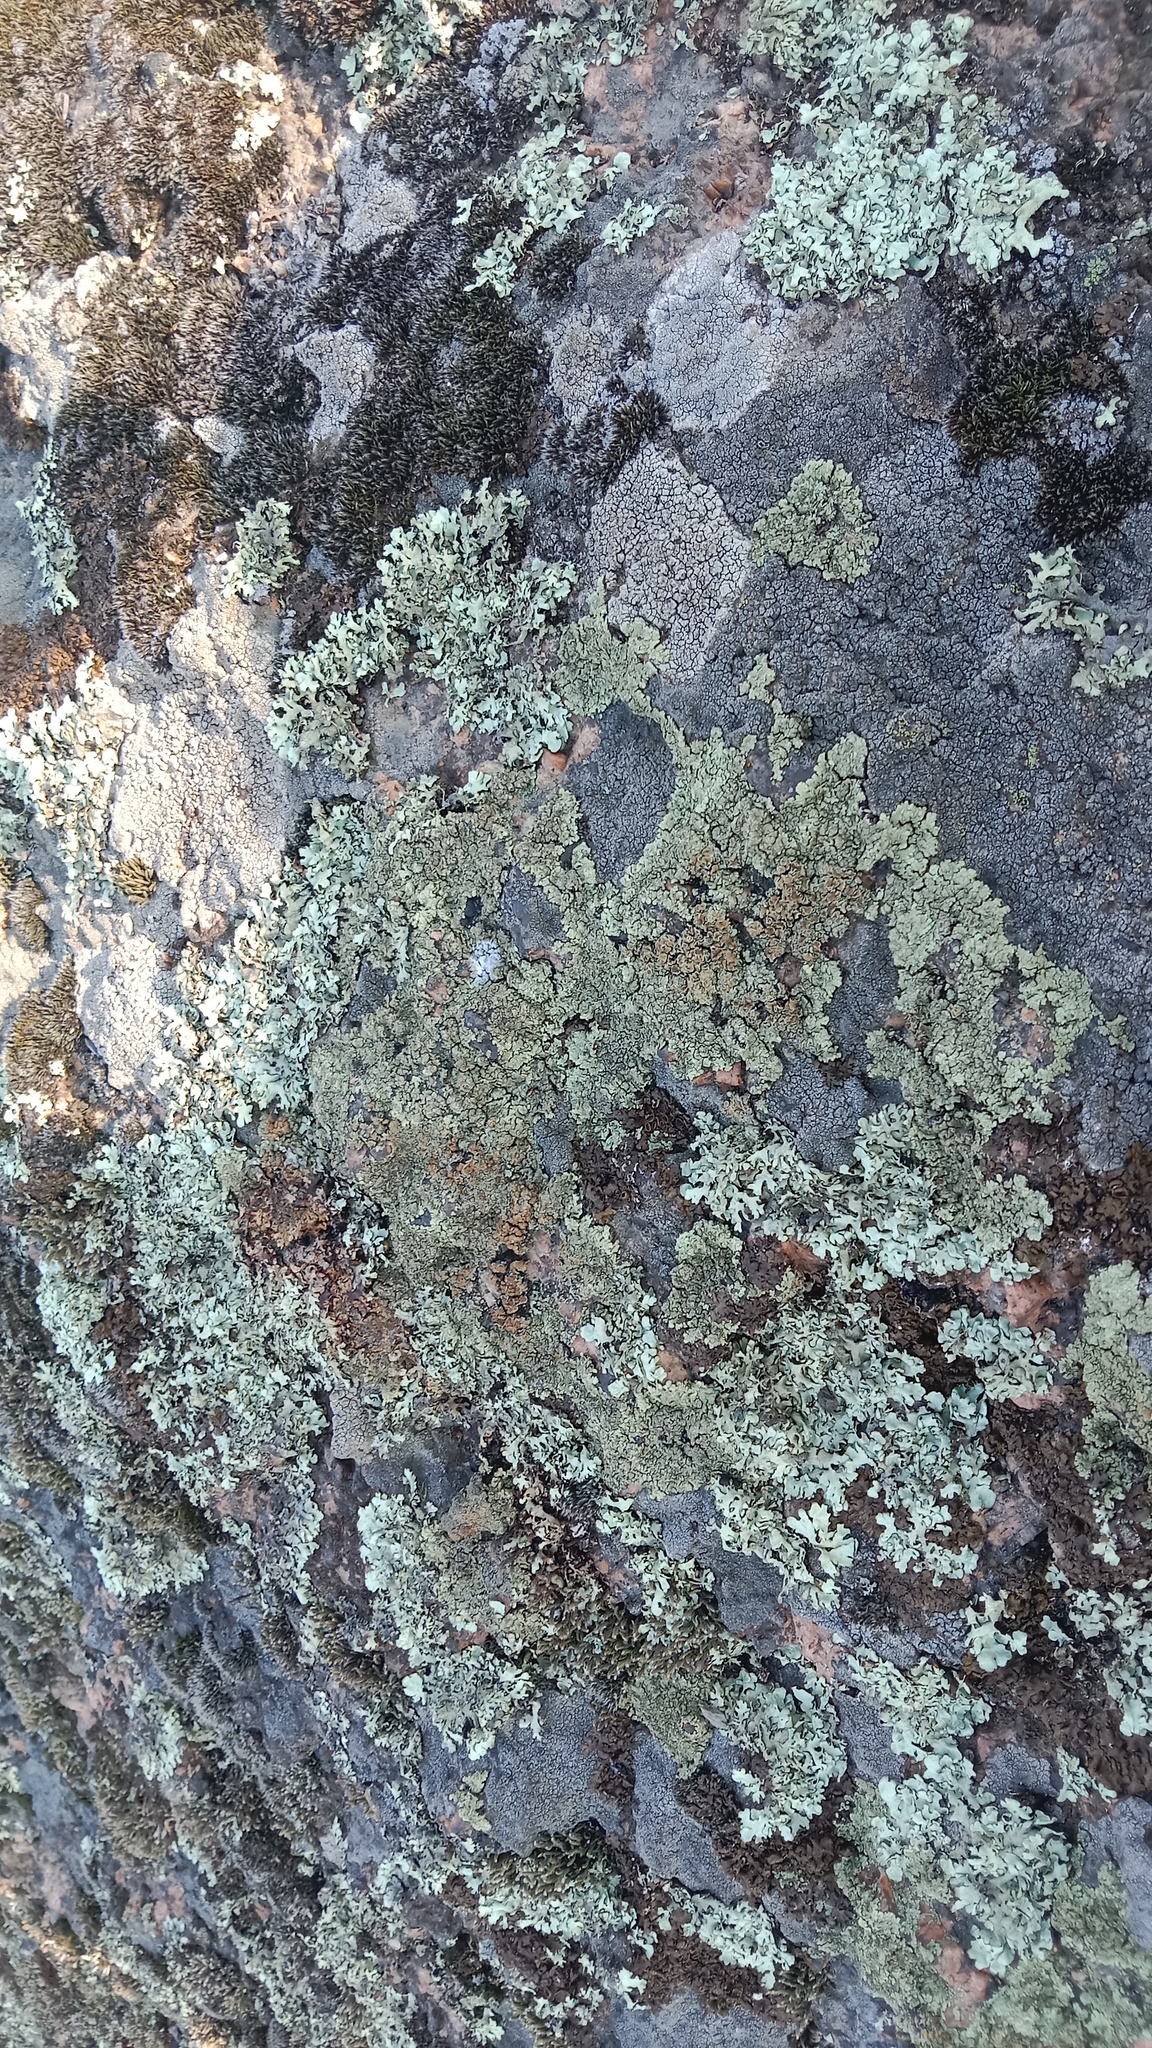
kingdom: Fungi
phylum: Ascomycota
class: Lecanoromycetes
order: Lecanorales
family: Lecanoraceae
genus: Protoparmeliopsis
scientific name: Protoparmeliopsis muralis
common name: Stonewall rim lichen
